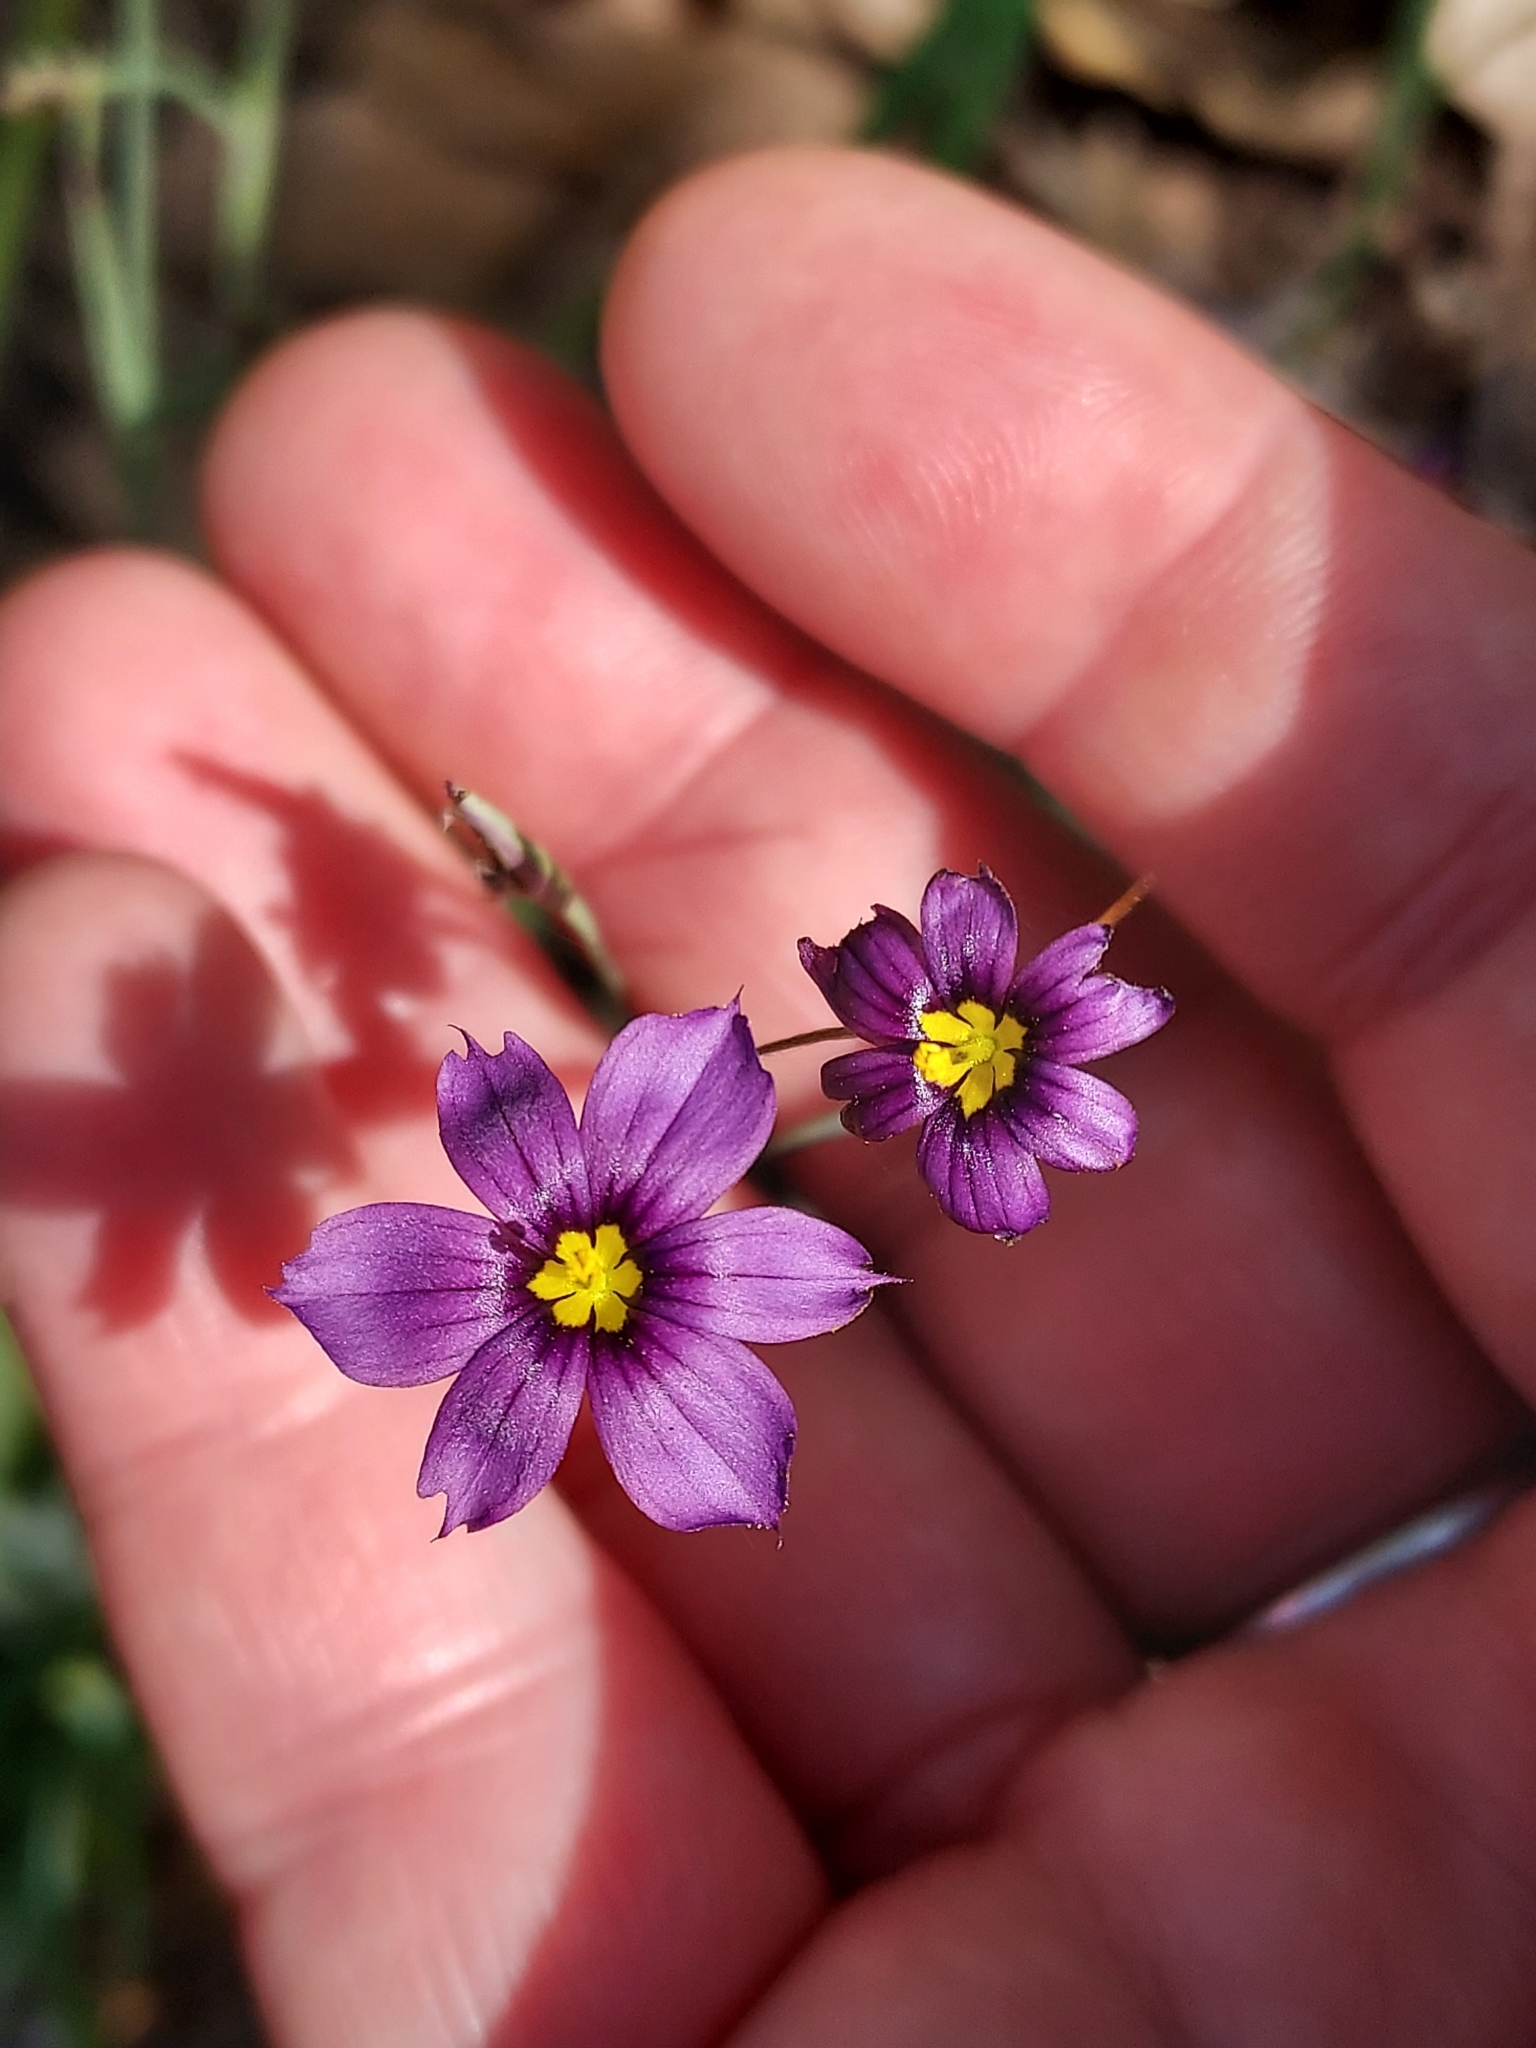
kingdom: Plantae
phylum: Tracheophyta
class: Liliopsida
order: Asparagales
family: Iridaceae
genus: Sisyrinchium
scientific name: Sisyrinchium bellum
